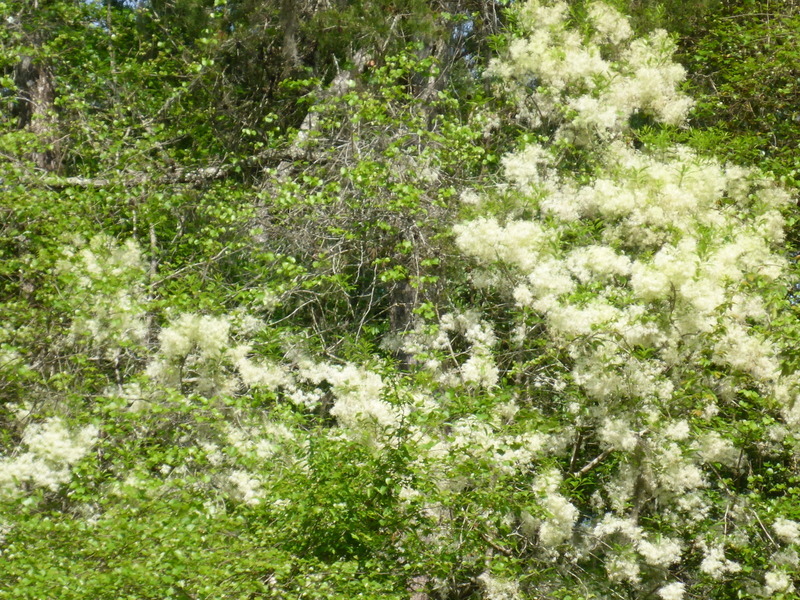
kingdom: Plantae
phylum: Tracheophyta
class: Magnoliopsida
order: Lamiales
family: Oleaceae
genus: Chionanthus
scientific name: Chionanthus virginicus
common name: American fringetree
